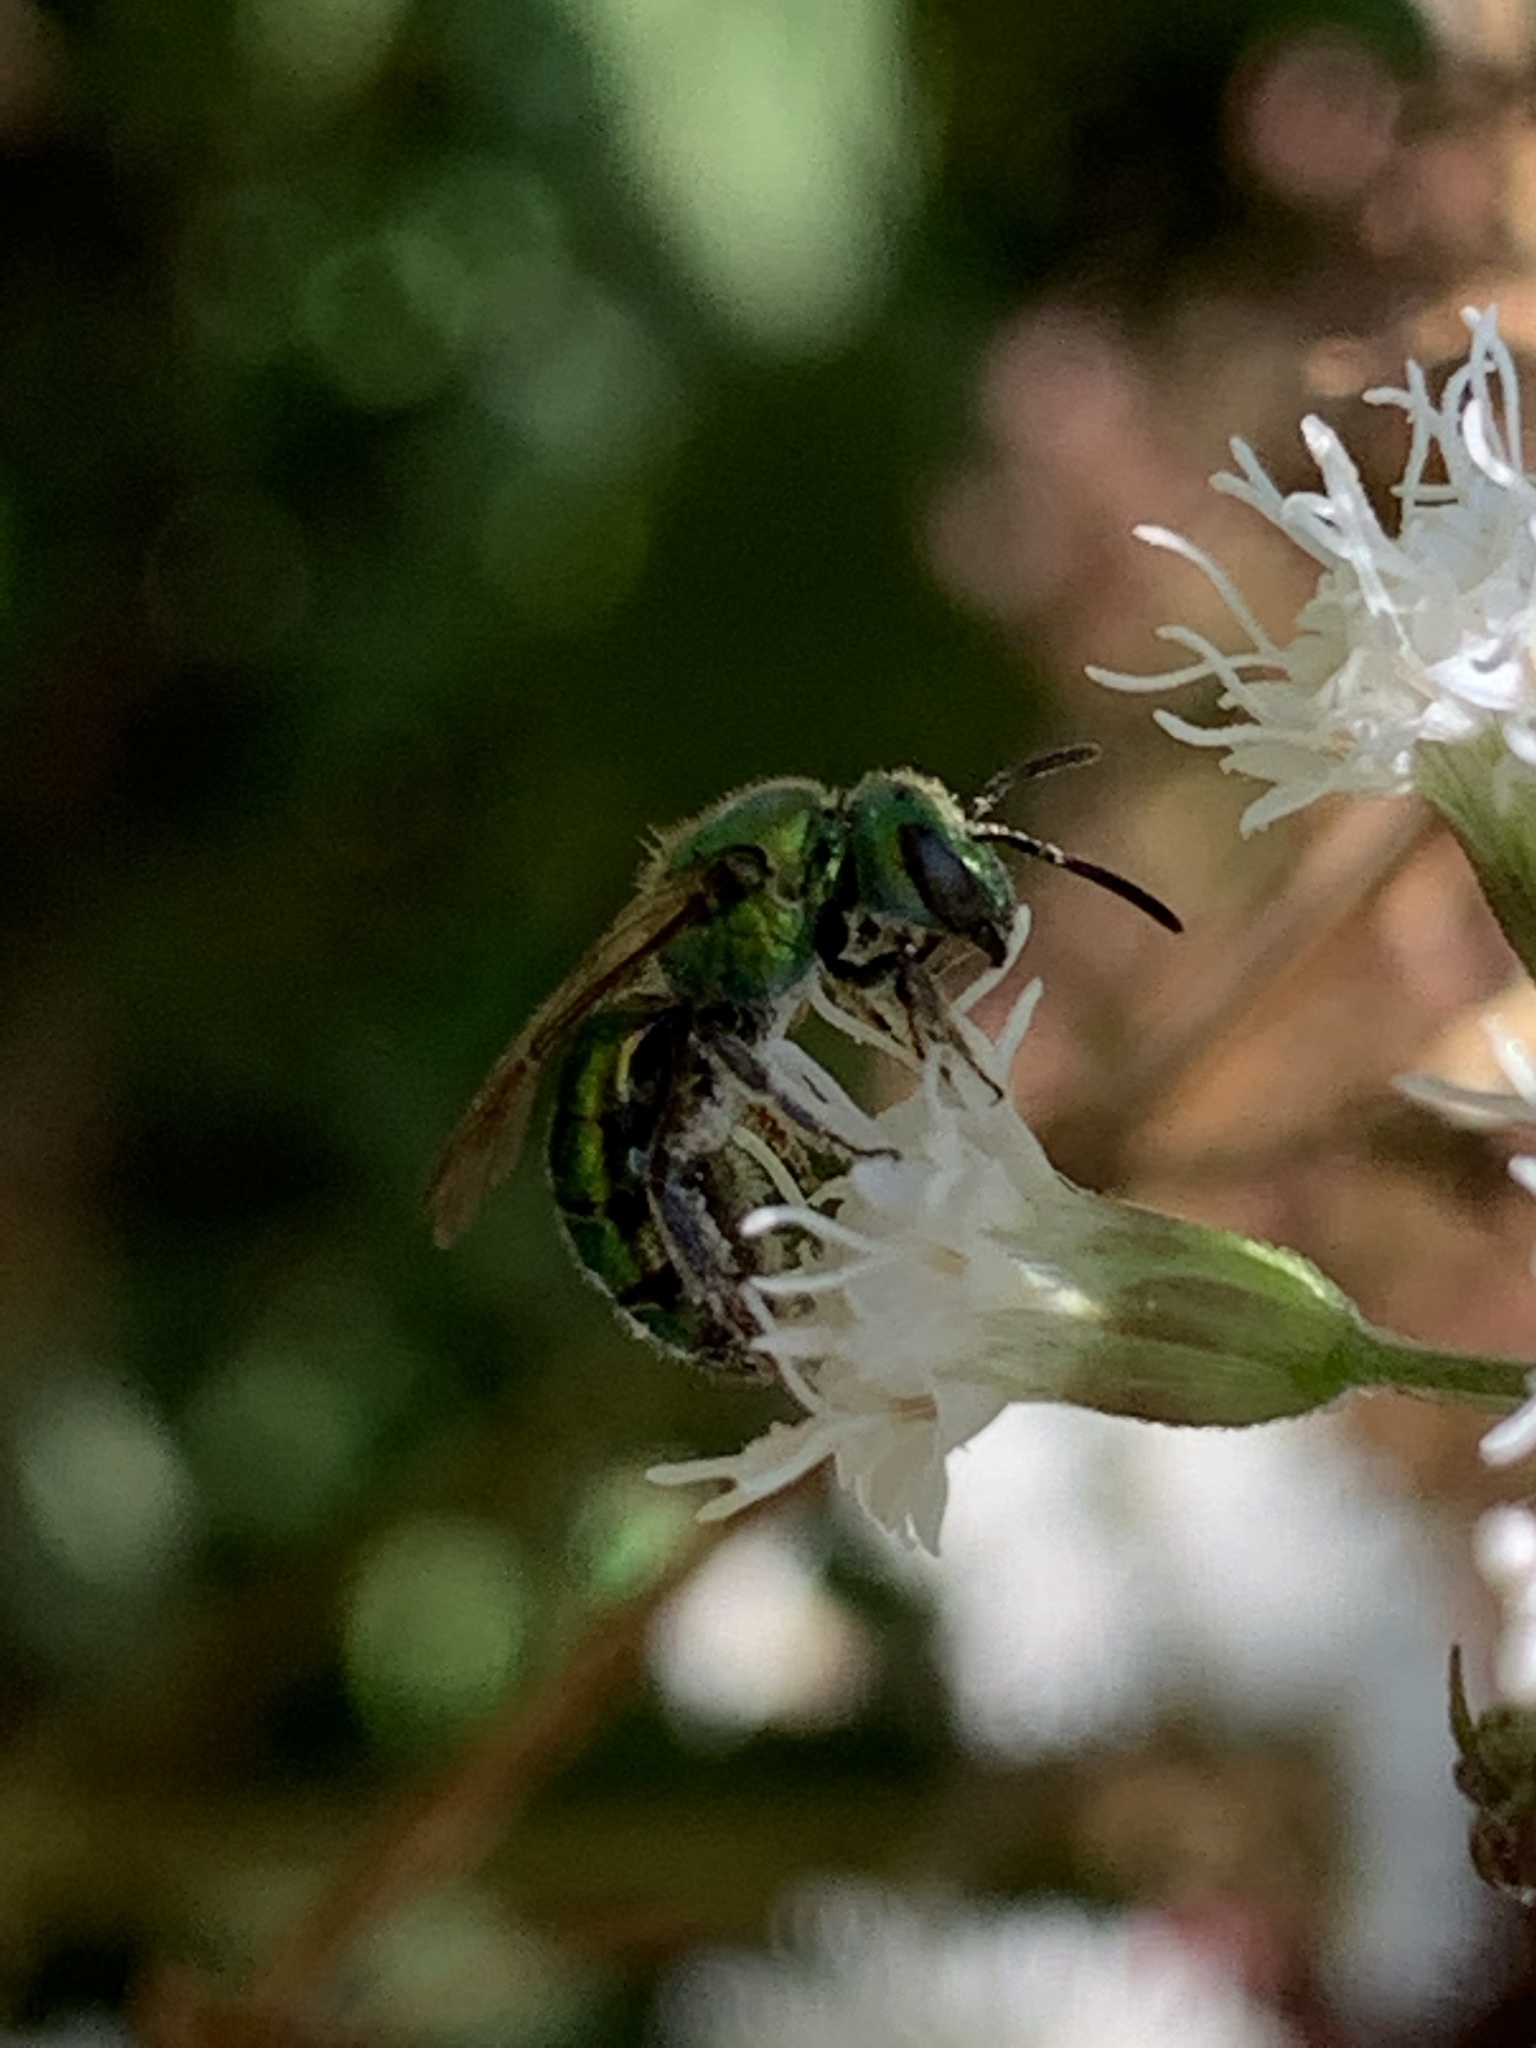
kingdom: Animalia
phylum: Arthropoda
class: Insecta
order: Hymenoptera
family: Halictidae
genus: Augochlora
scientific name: Augochlora pura
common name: Pure green sweat bee
